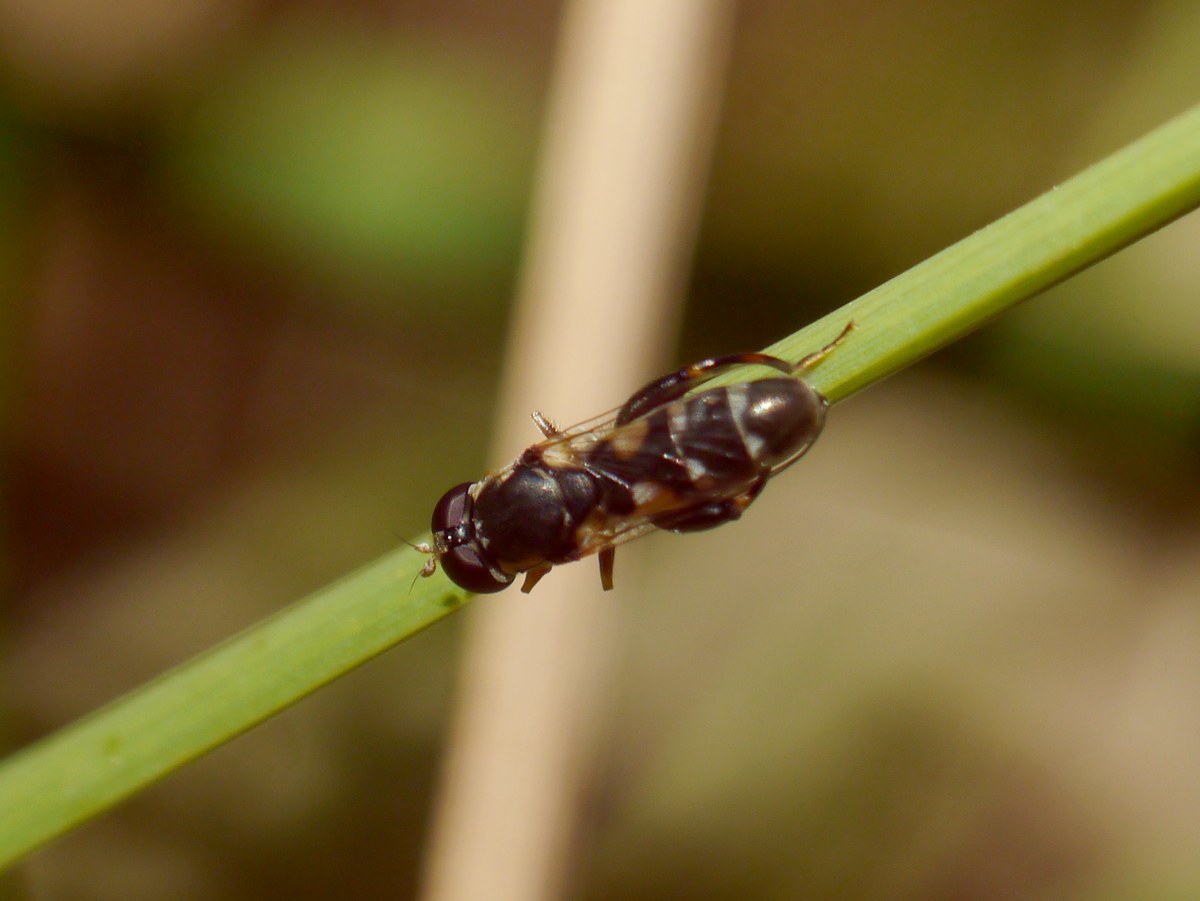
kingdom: Animalia
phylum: Arthropoda
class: Insecta
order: Diptera
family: Syrphidae
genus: Syritta
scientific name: Syritta pipiens
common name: Hover fly
